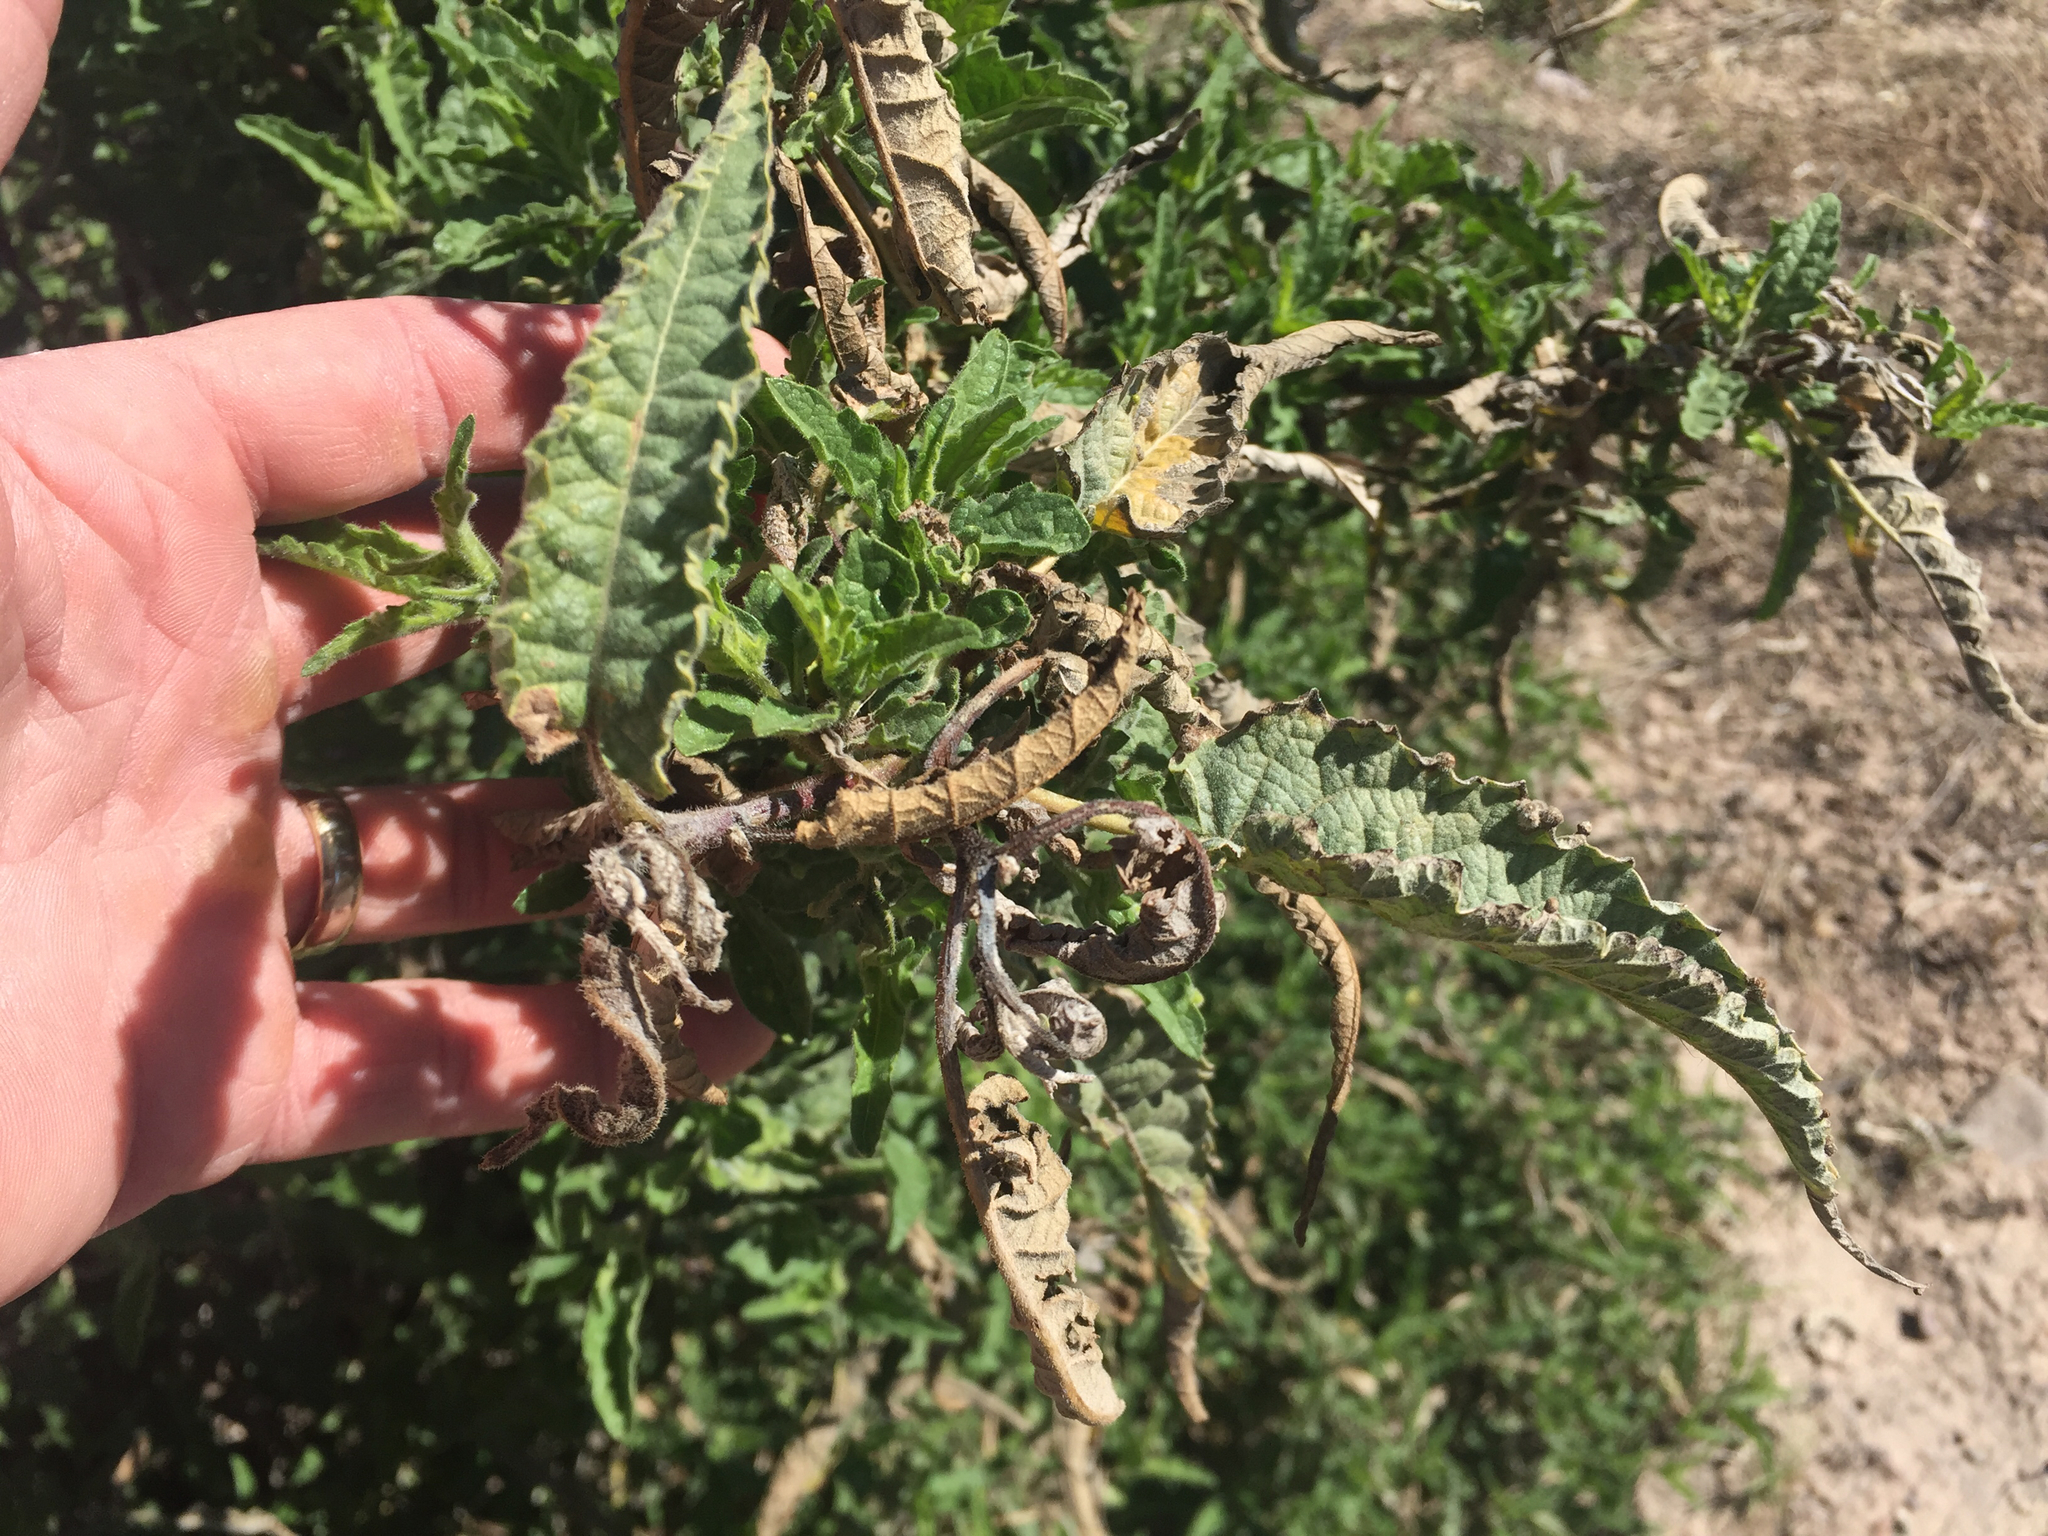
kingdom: Plantae
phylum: Tracheophyta
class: Magnoliopsida
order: Asterales
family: Asteraceae
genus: Ambrosia
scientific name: Ambrosia ambrosioides
